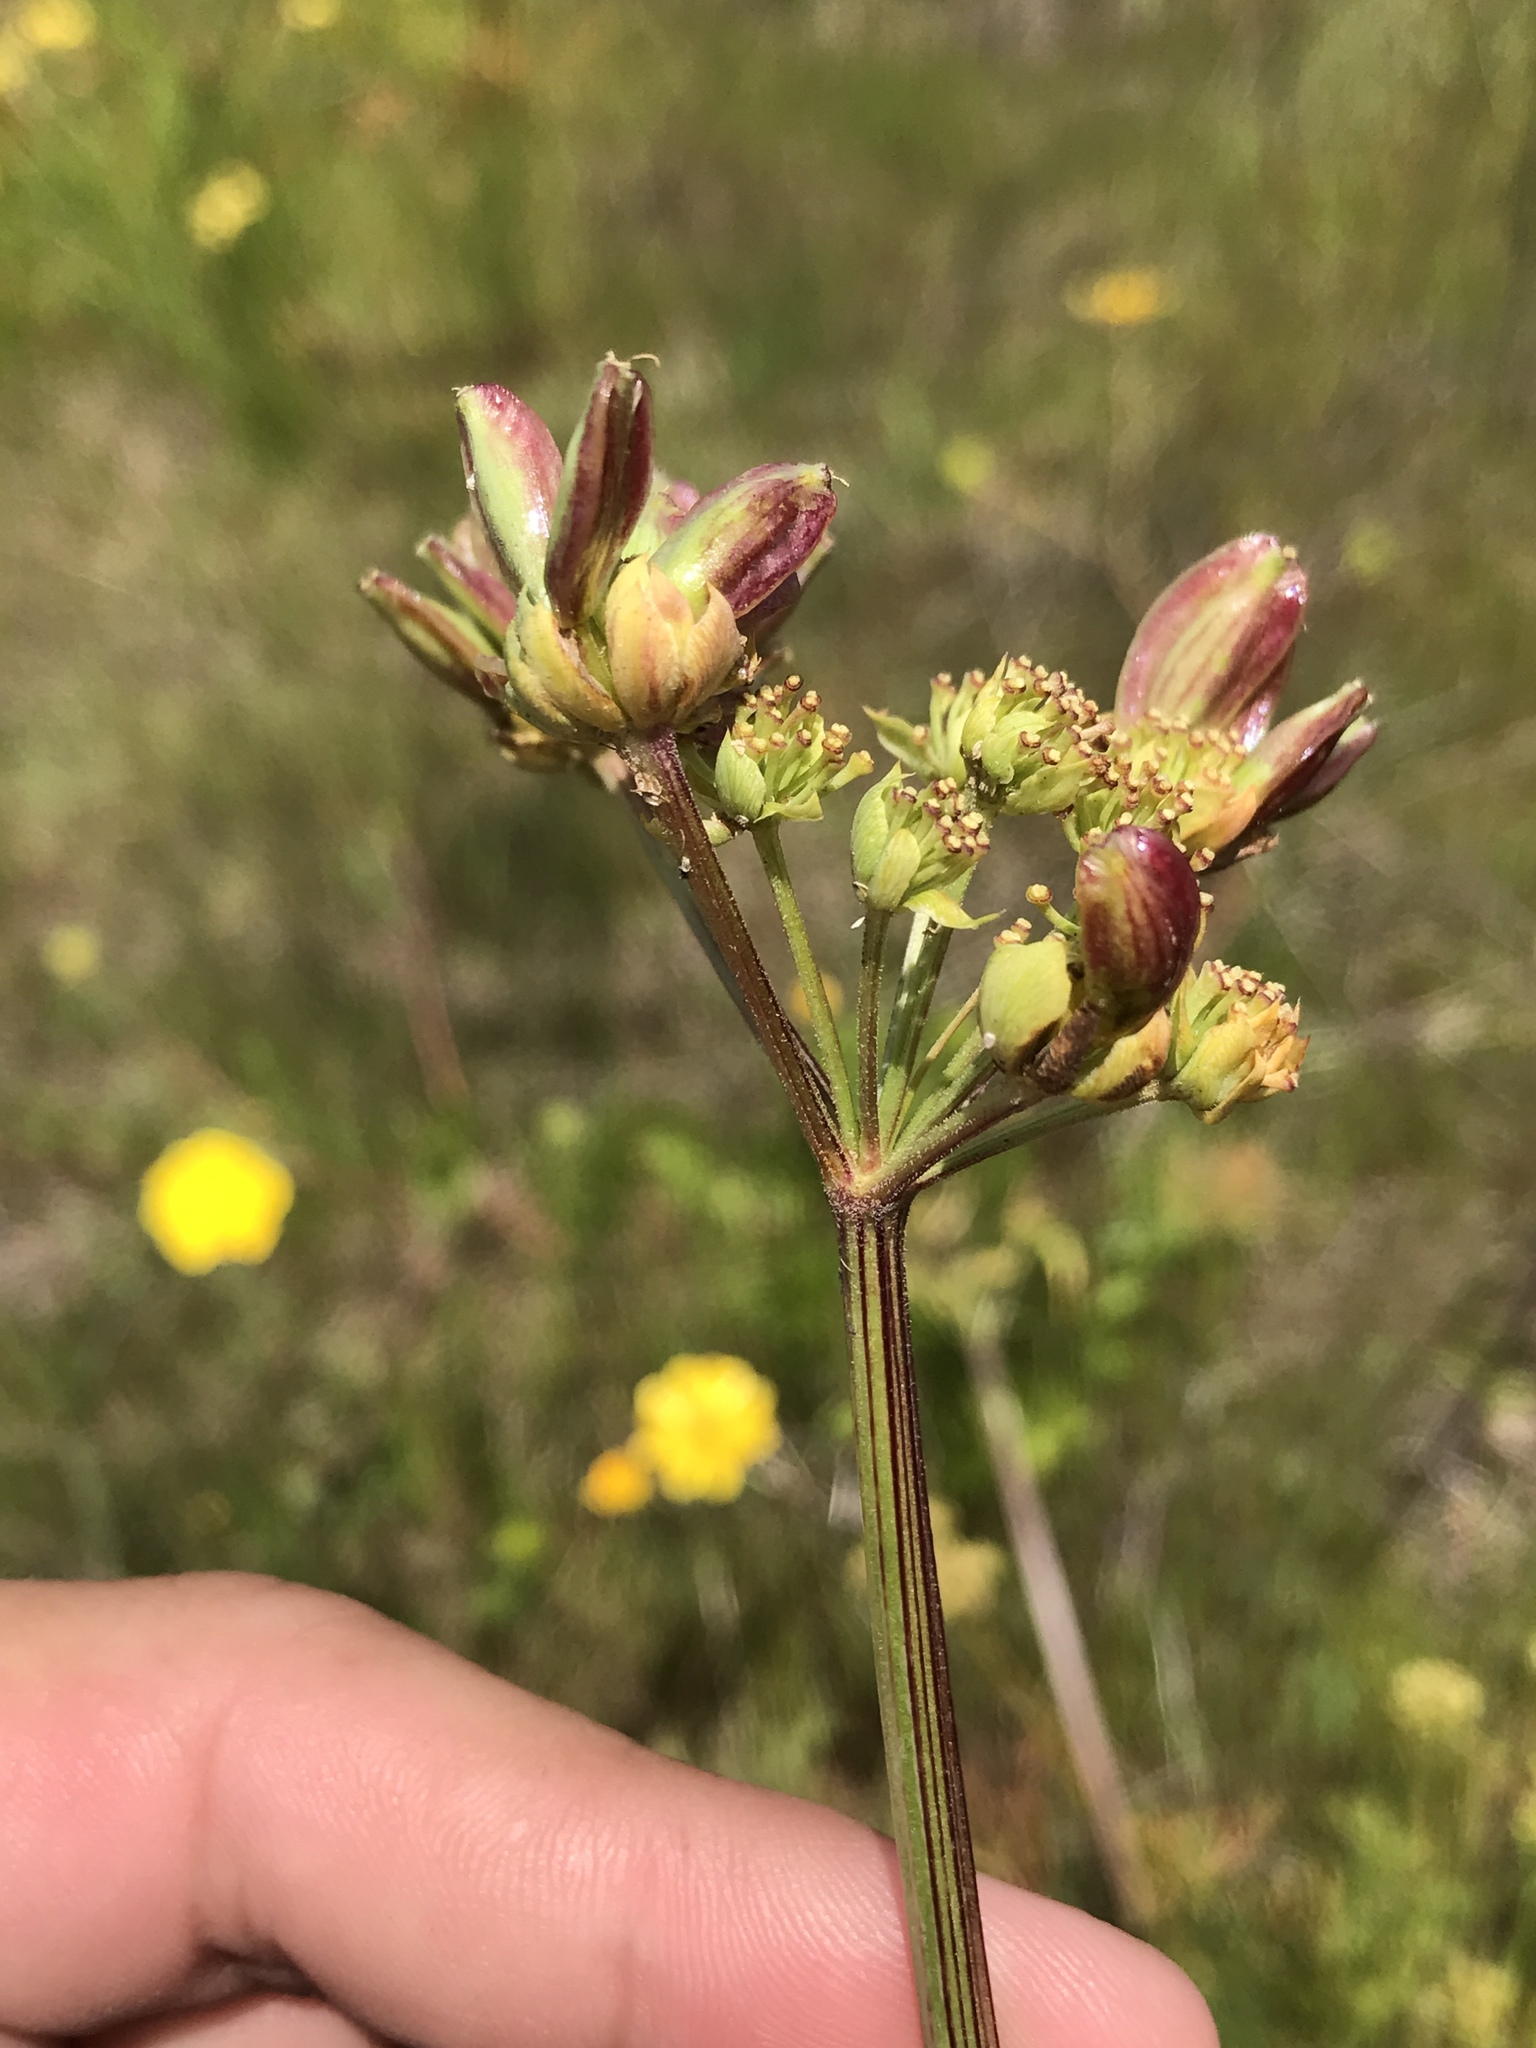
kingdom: Plantae
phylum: Tracheophyta
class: Magnoliopsida
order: Apiales
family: Apiaceae
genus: Lomatium
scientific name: Lomatium caruifolium
